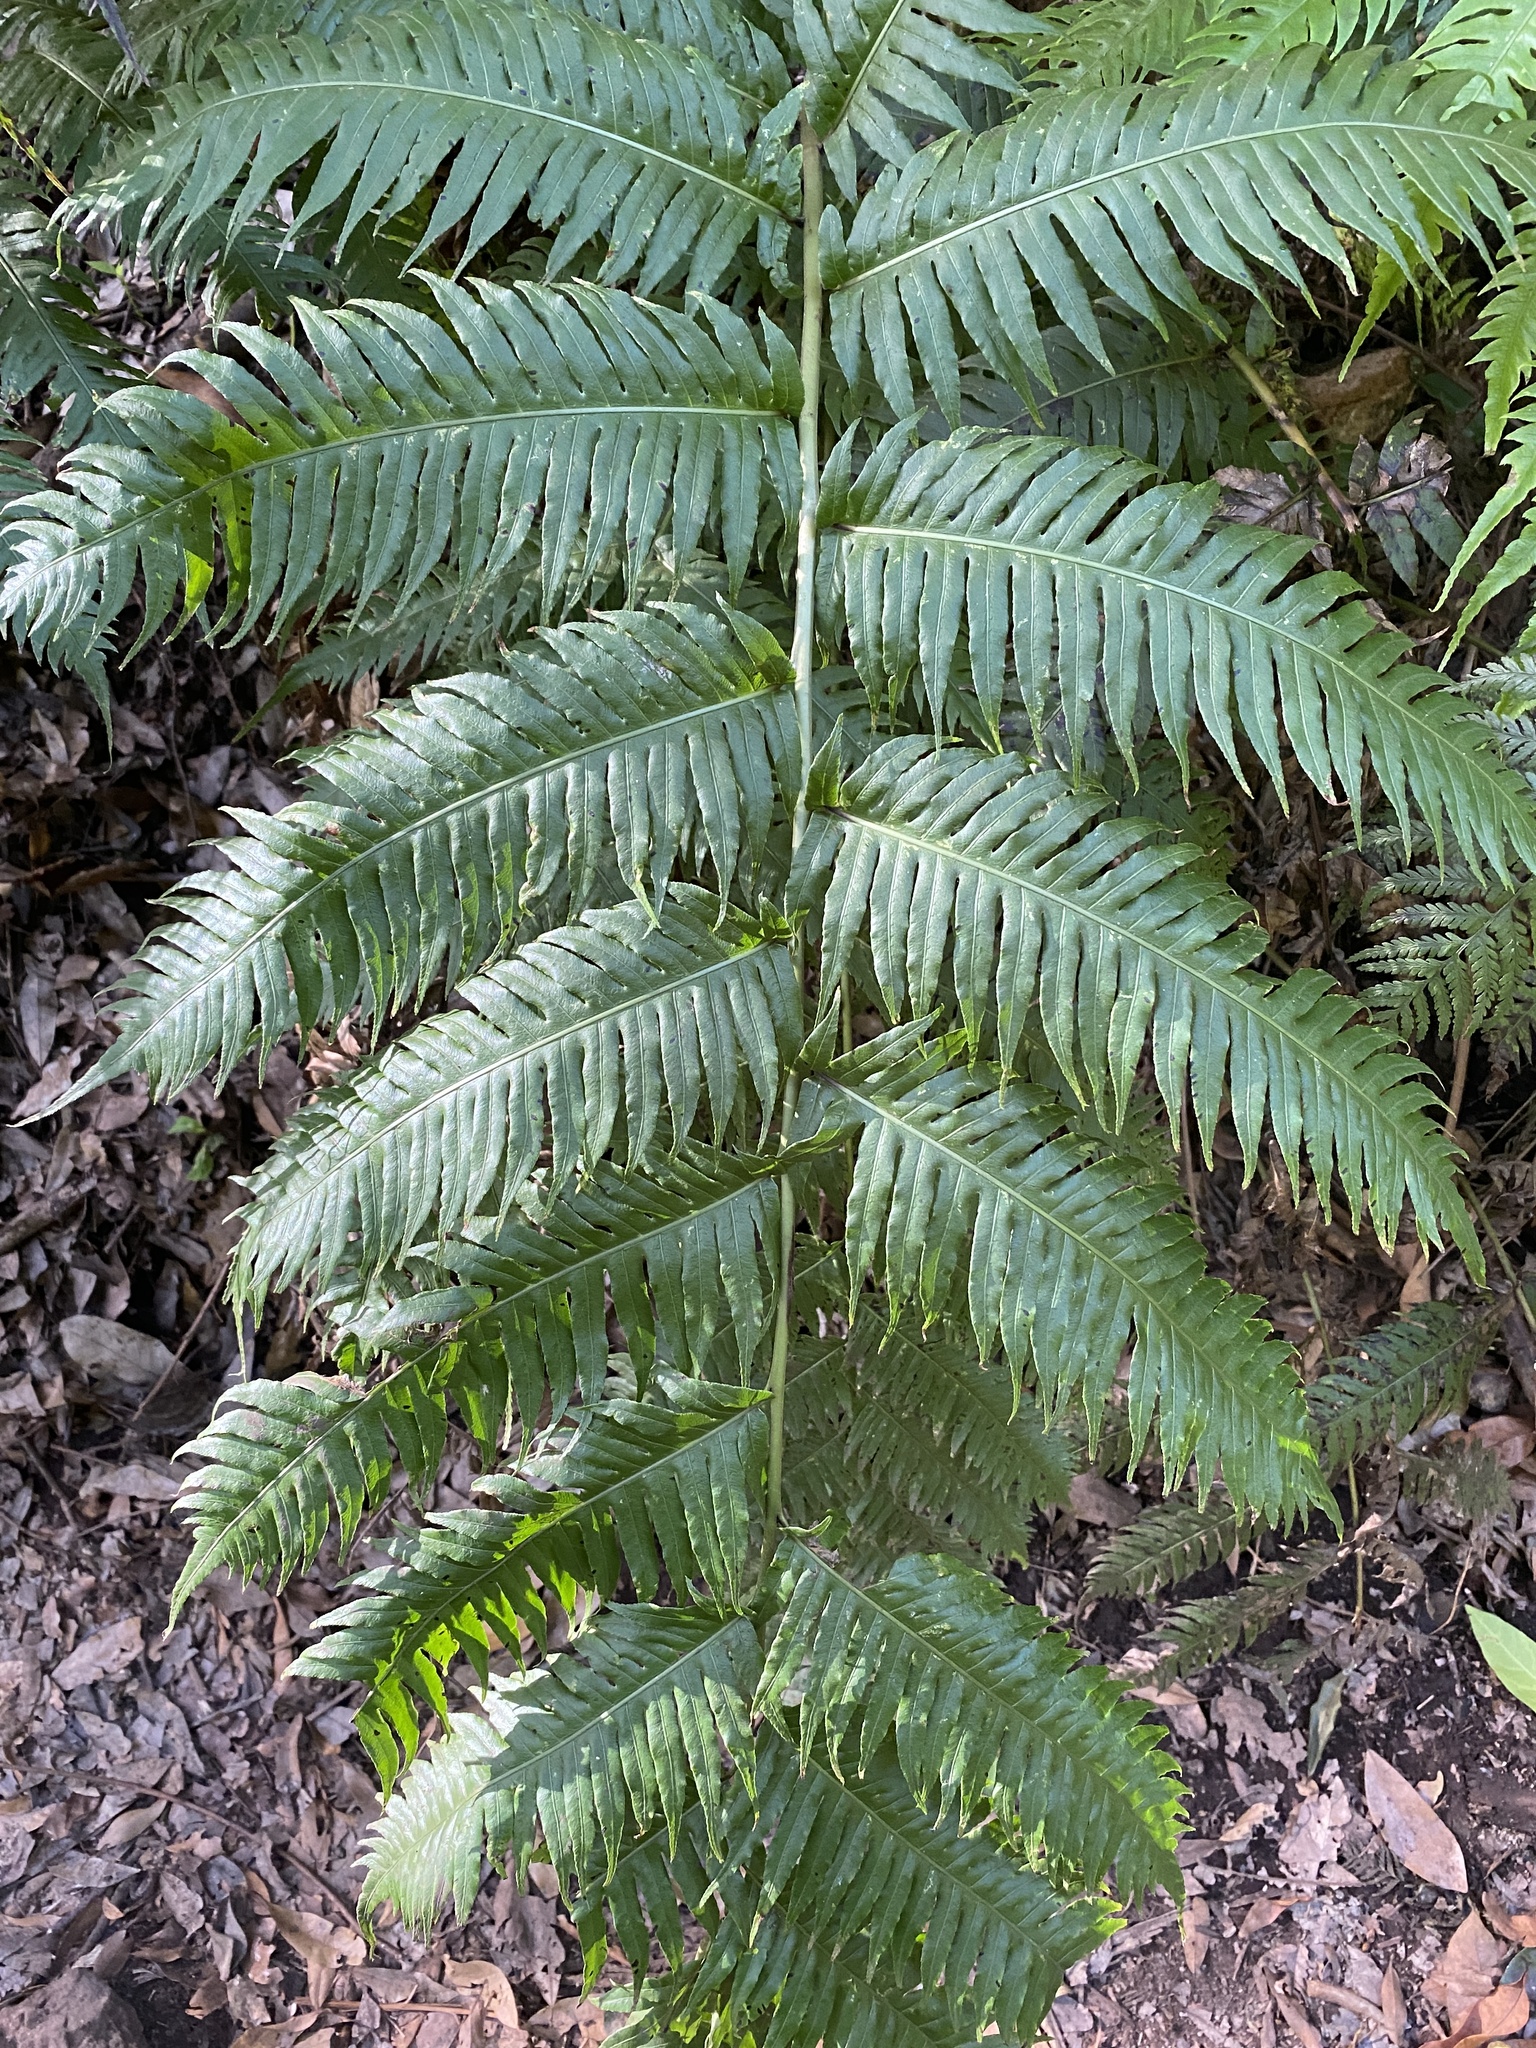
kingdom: Plantae
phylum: Tracheophyta
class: Polypodiopsida
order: Polypodiales
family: Blechnaceae
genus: Woodwardia
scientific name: Woodwardia radicans
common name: Rooting chainfern
